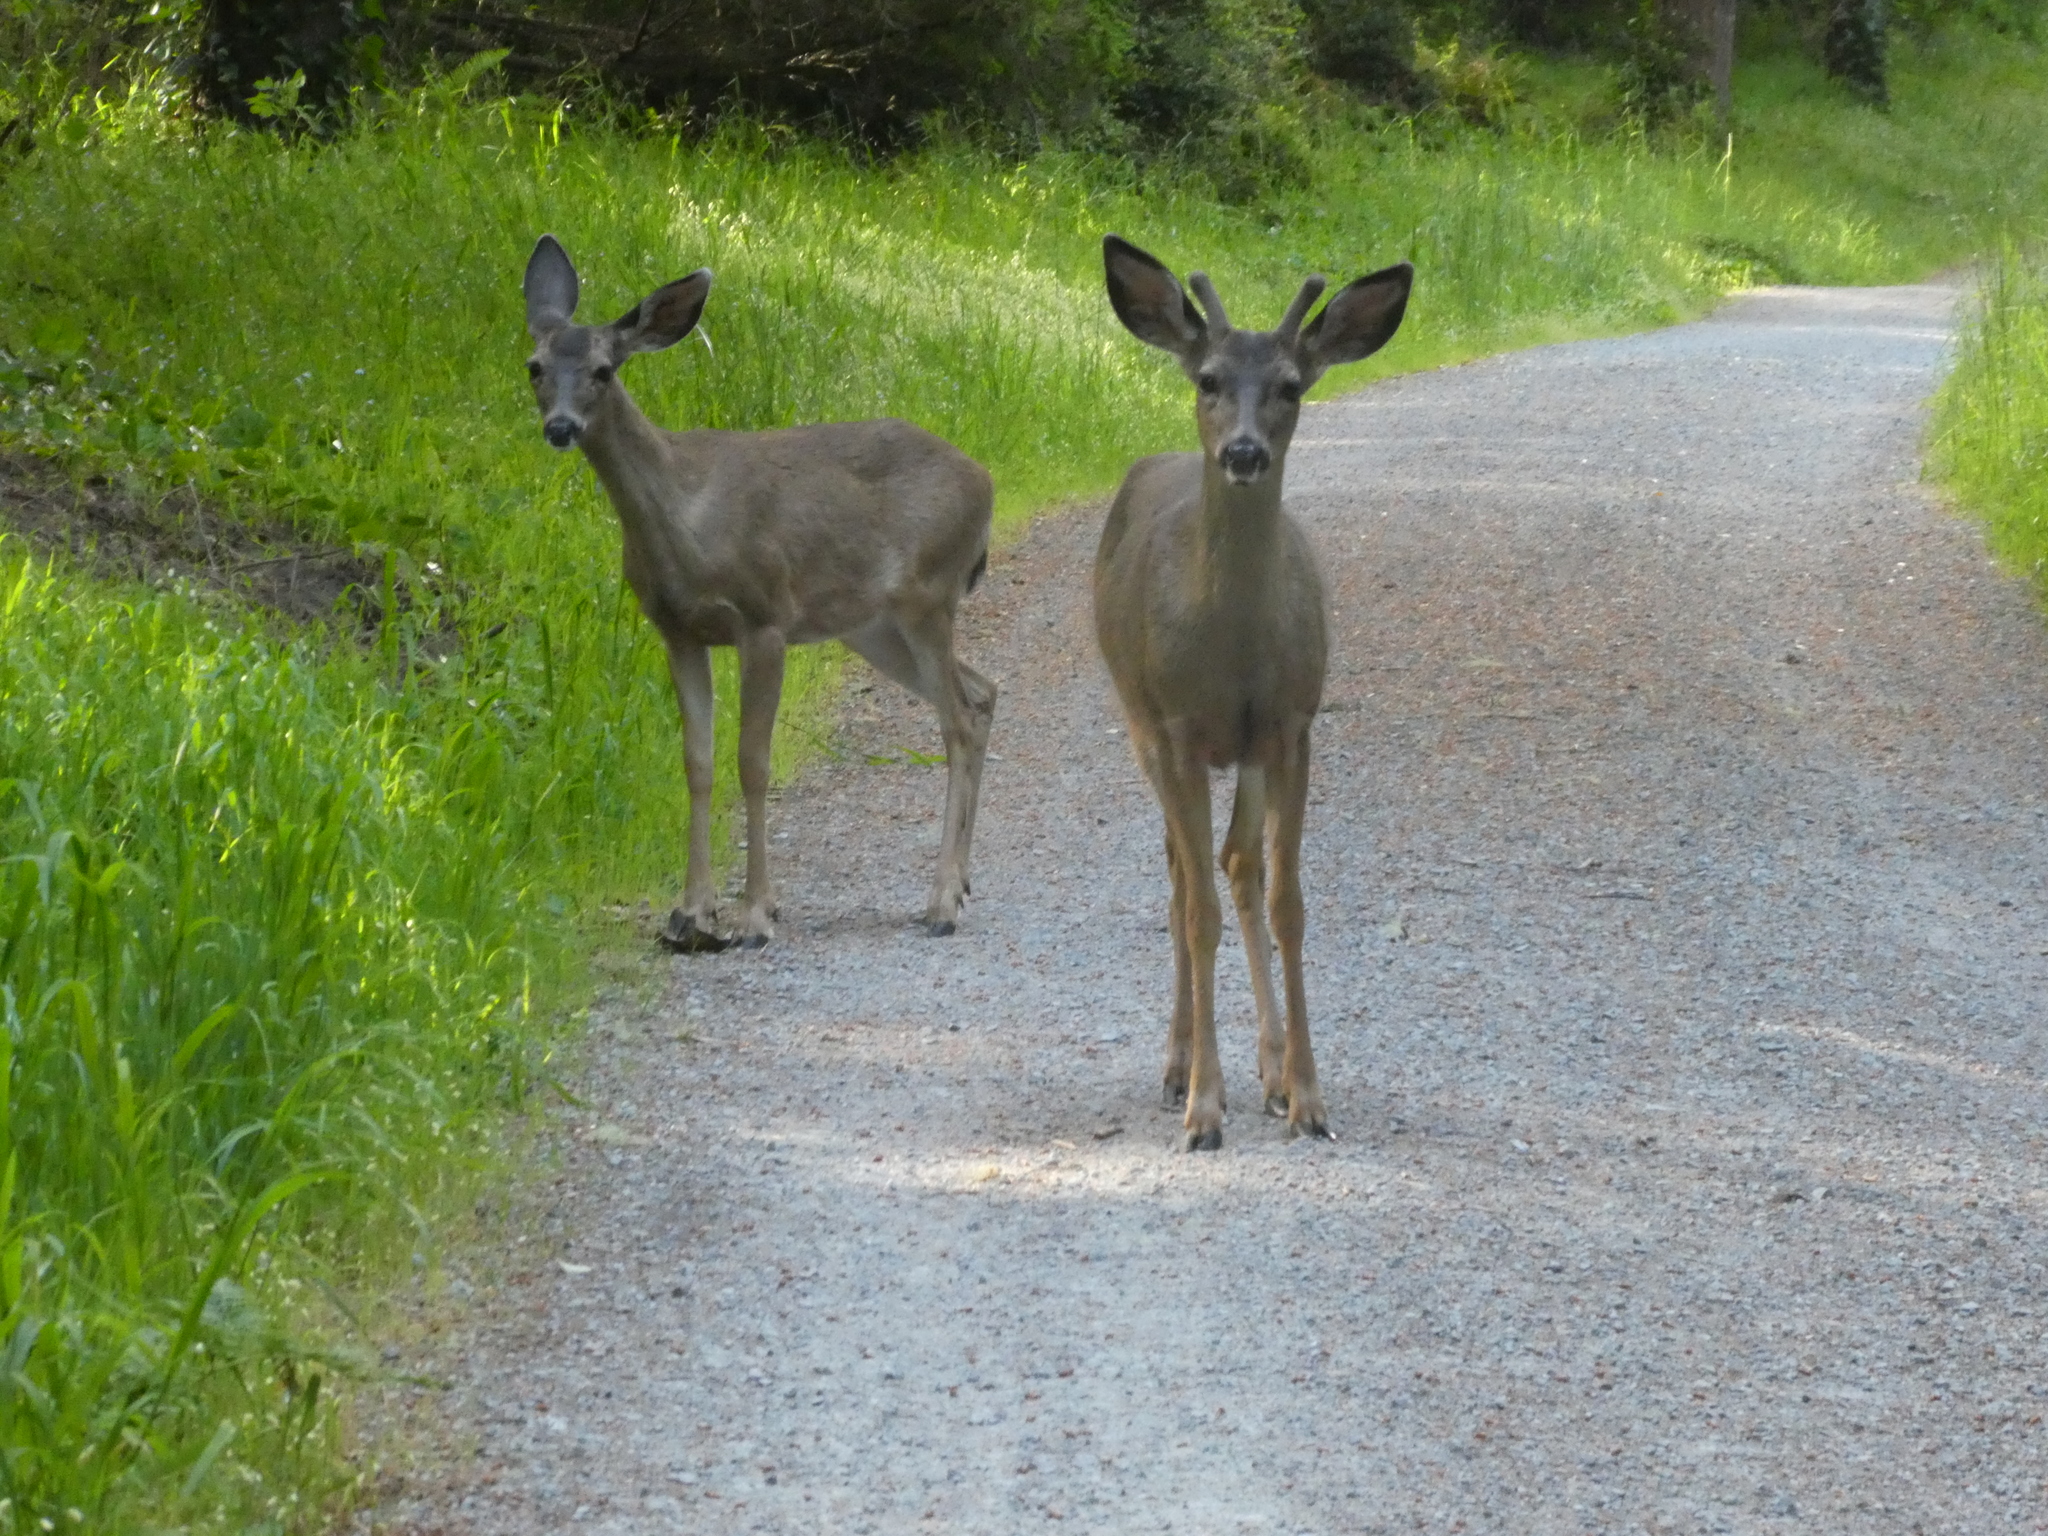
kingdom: Animalia
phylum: Chordata
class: Mammalia
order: Artiodactyla
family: Cervidae
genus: Odocoileus
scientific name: Odocoileus hemionus
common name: Mule deer
